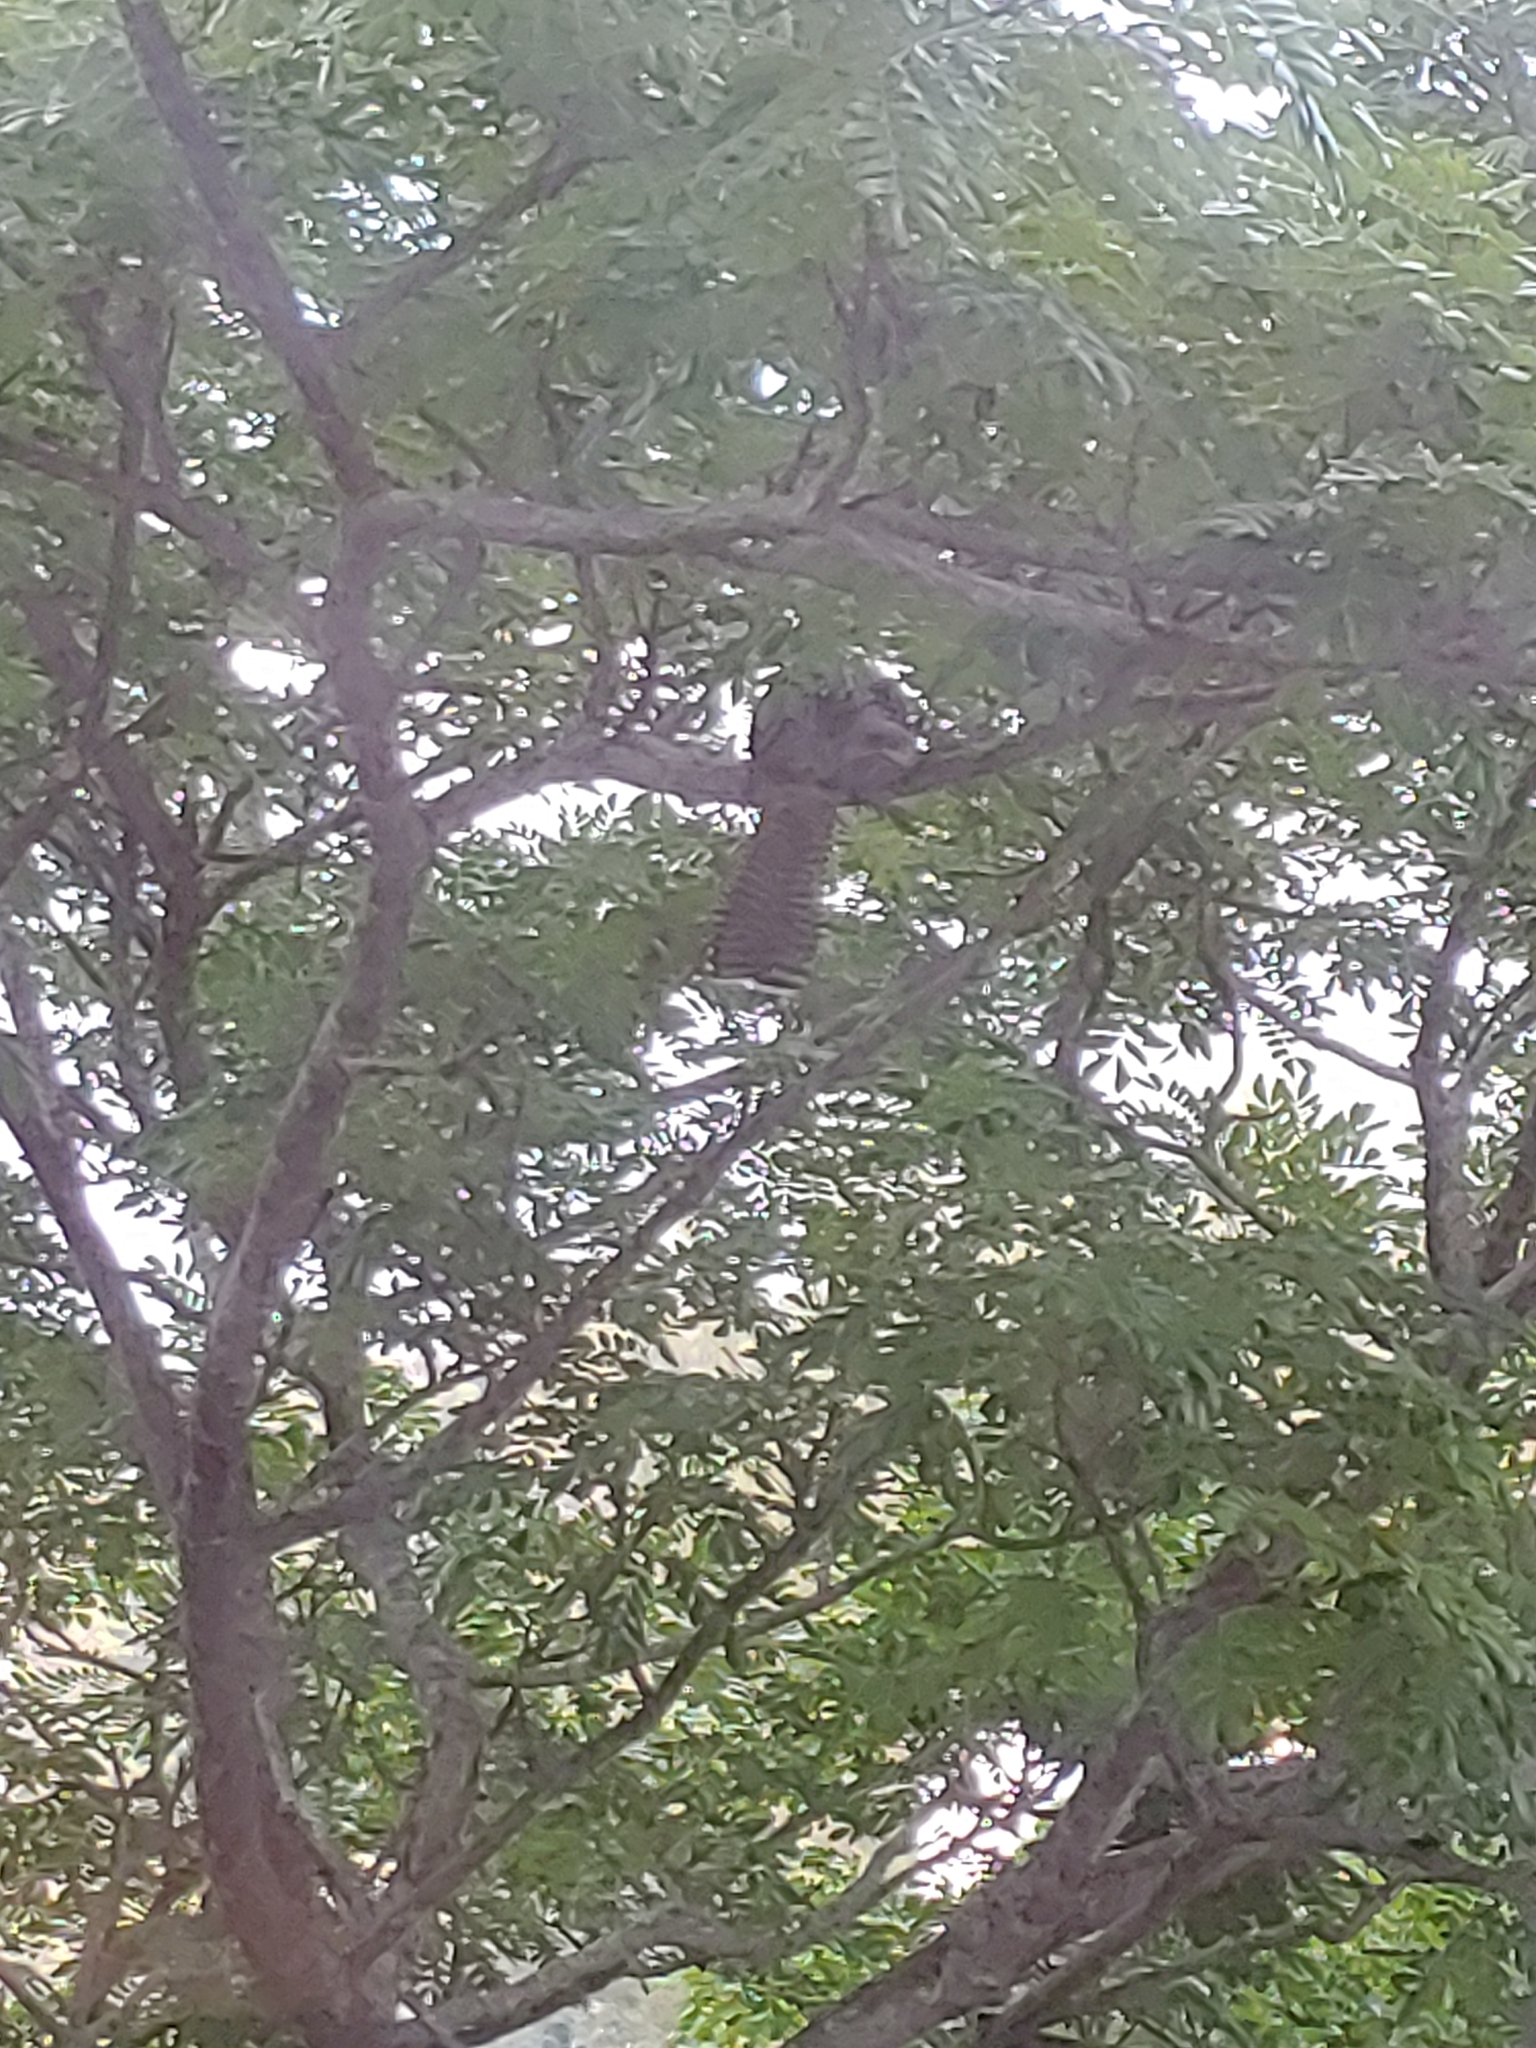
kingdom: Animalia
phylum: Chordata
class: Aves
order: Cuculiformes
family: Cuculidae
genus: Eudynamys
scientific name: Eudynamys scolopaceus
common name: Asian koel
